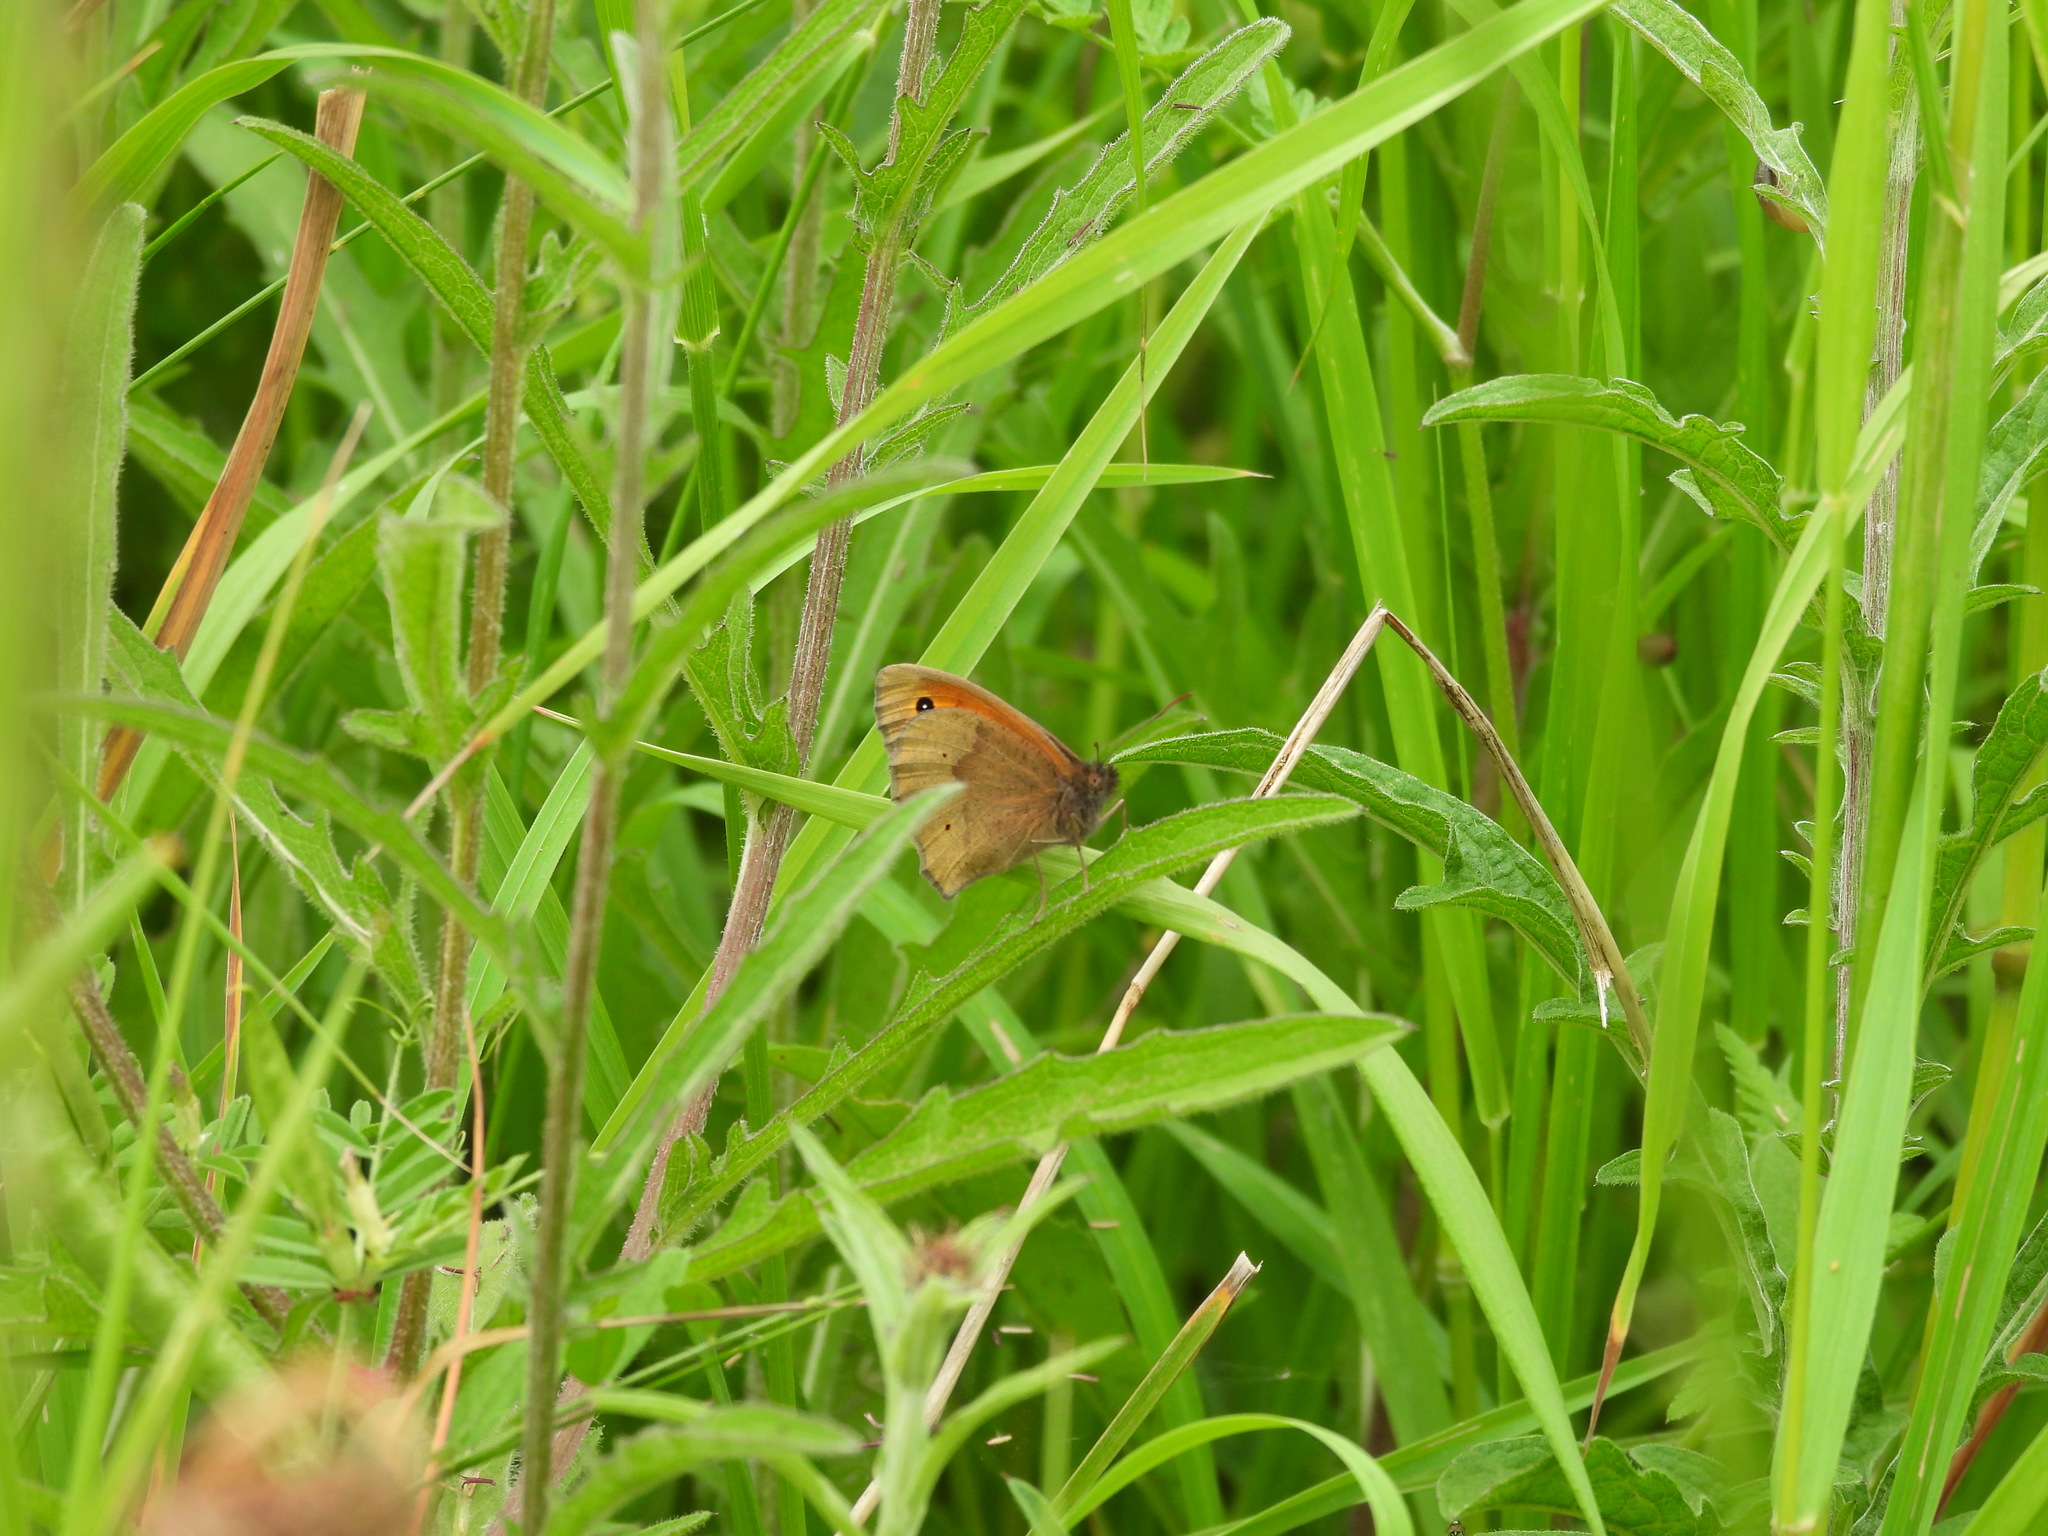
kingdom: Animalia
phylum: Arthropoda
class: Insecta
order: Lepidoptera
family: Nymphalidae
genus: Maniola
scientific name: Maniola jurtina
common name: Meadow brown
